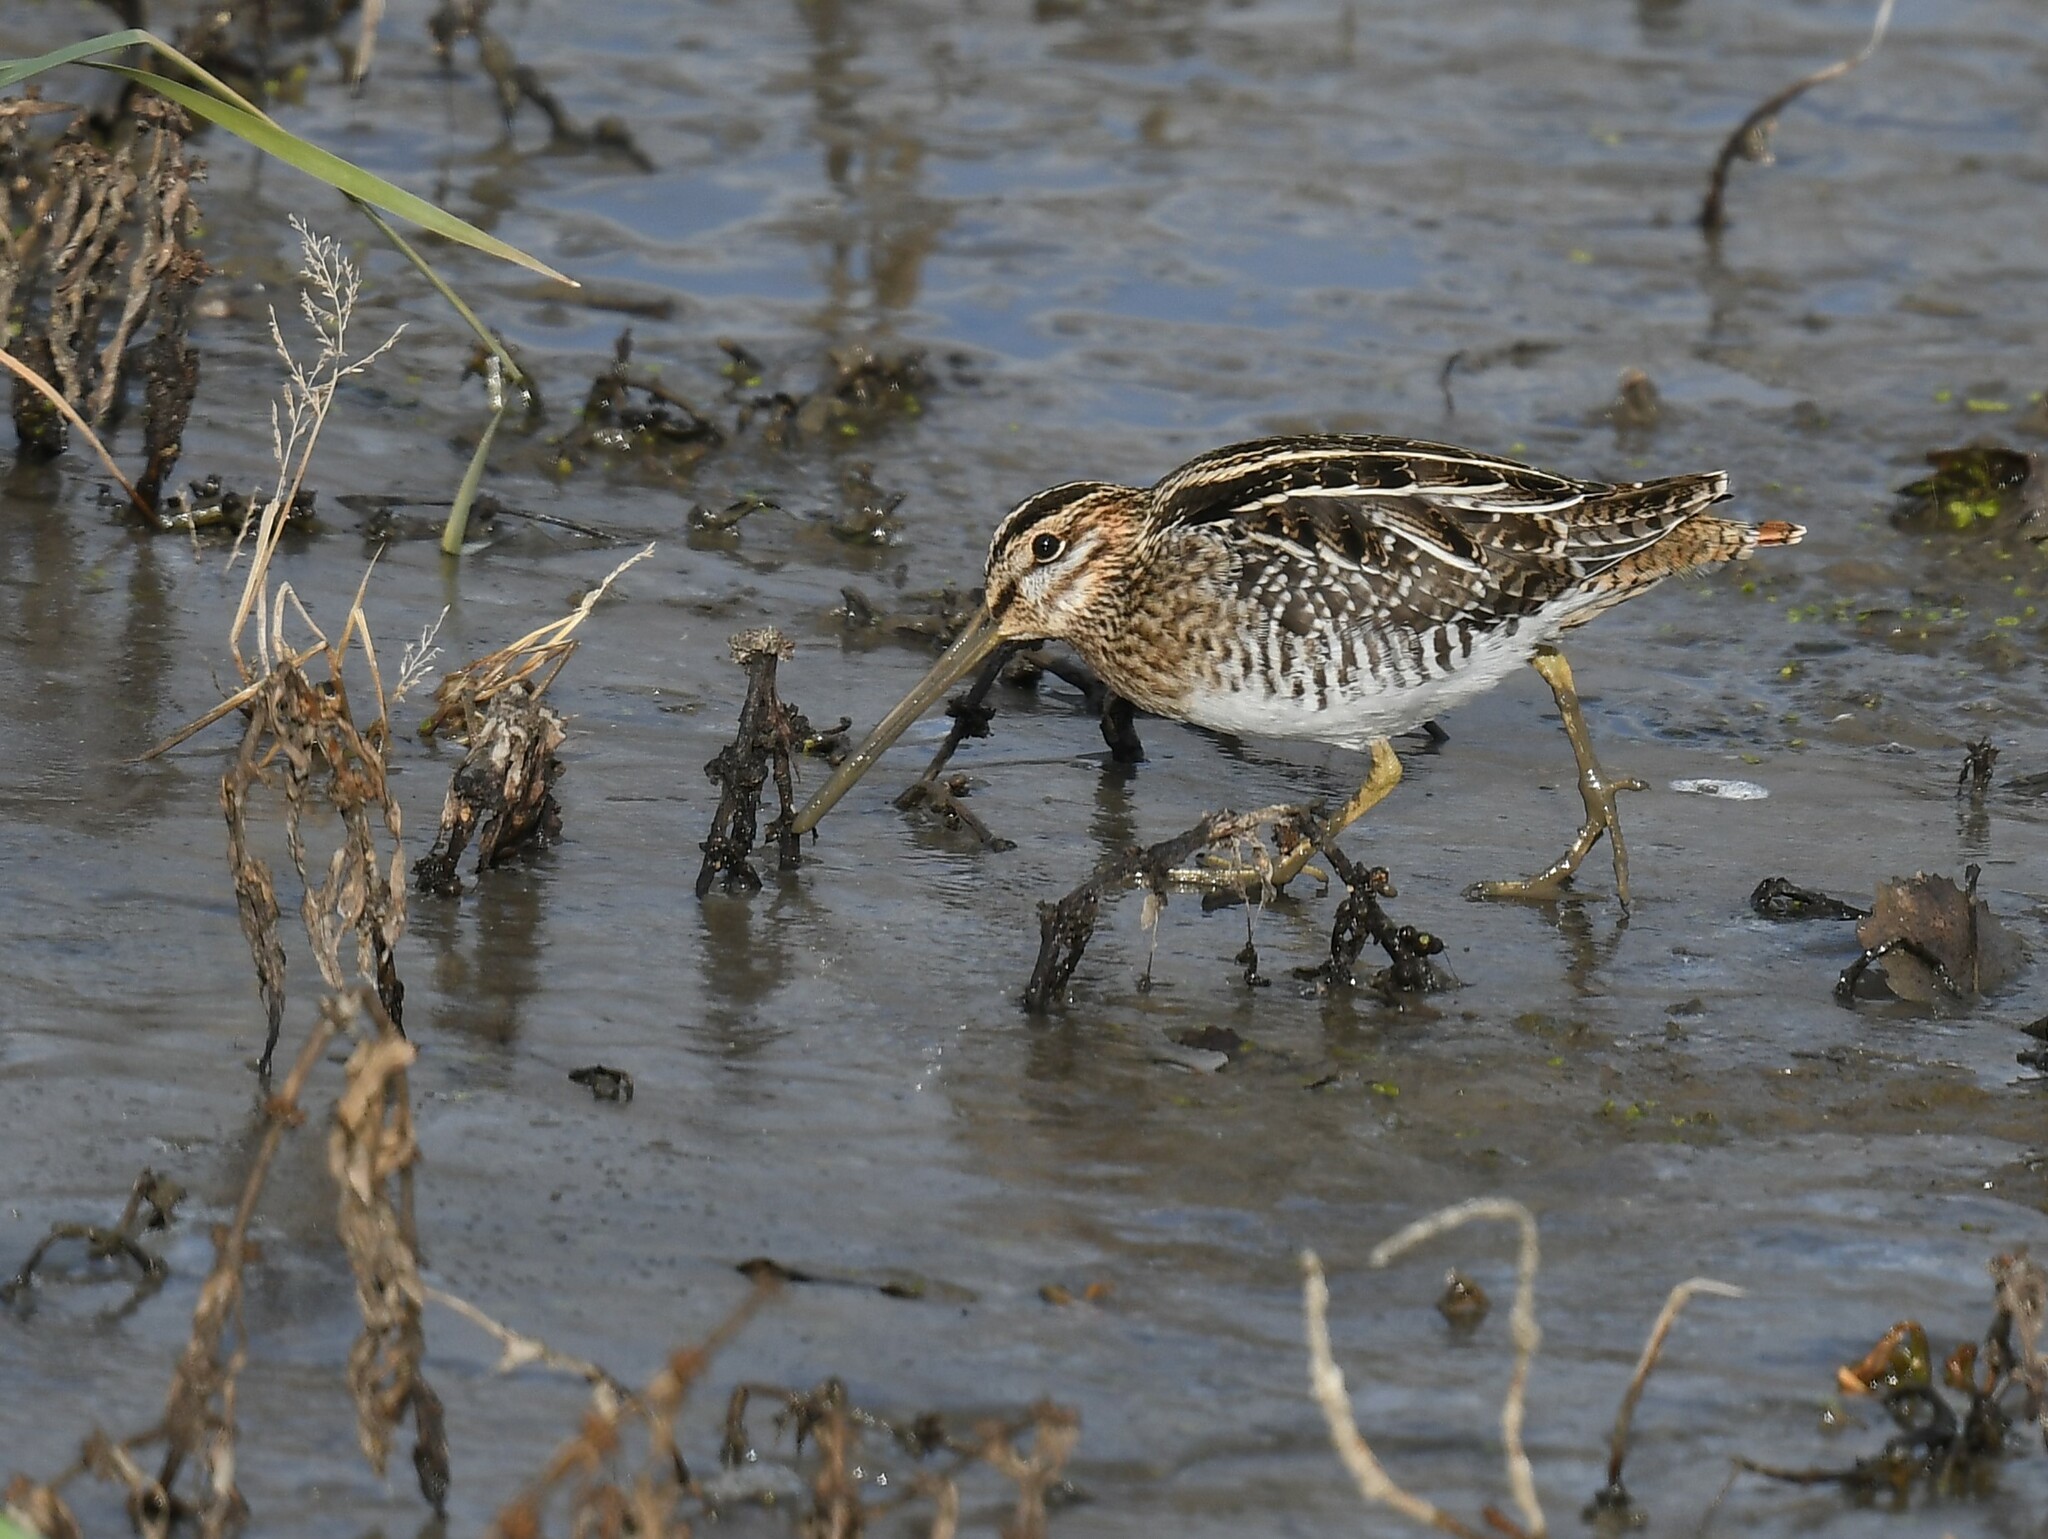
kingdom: Animalia
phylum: Chordata
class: Aves
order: Charadriiformes
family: Scolopacidae
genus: Gallinago
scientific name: Gallinago delicata
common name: Wilson's snipe
